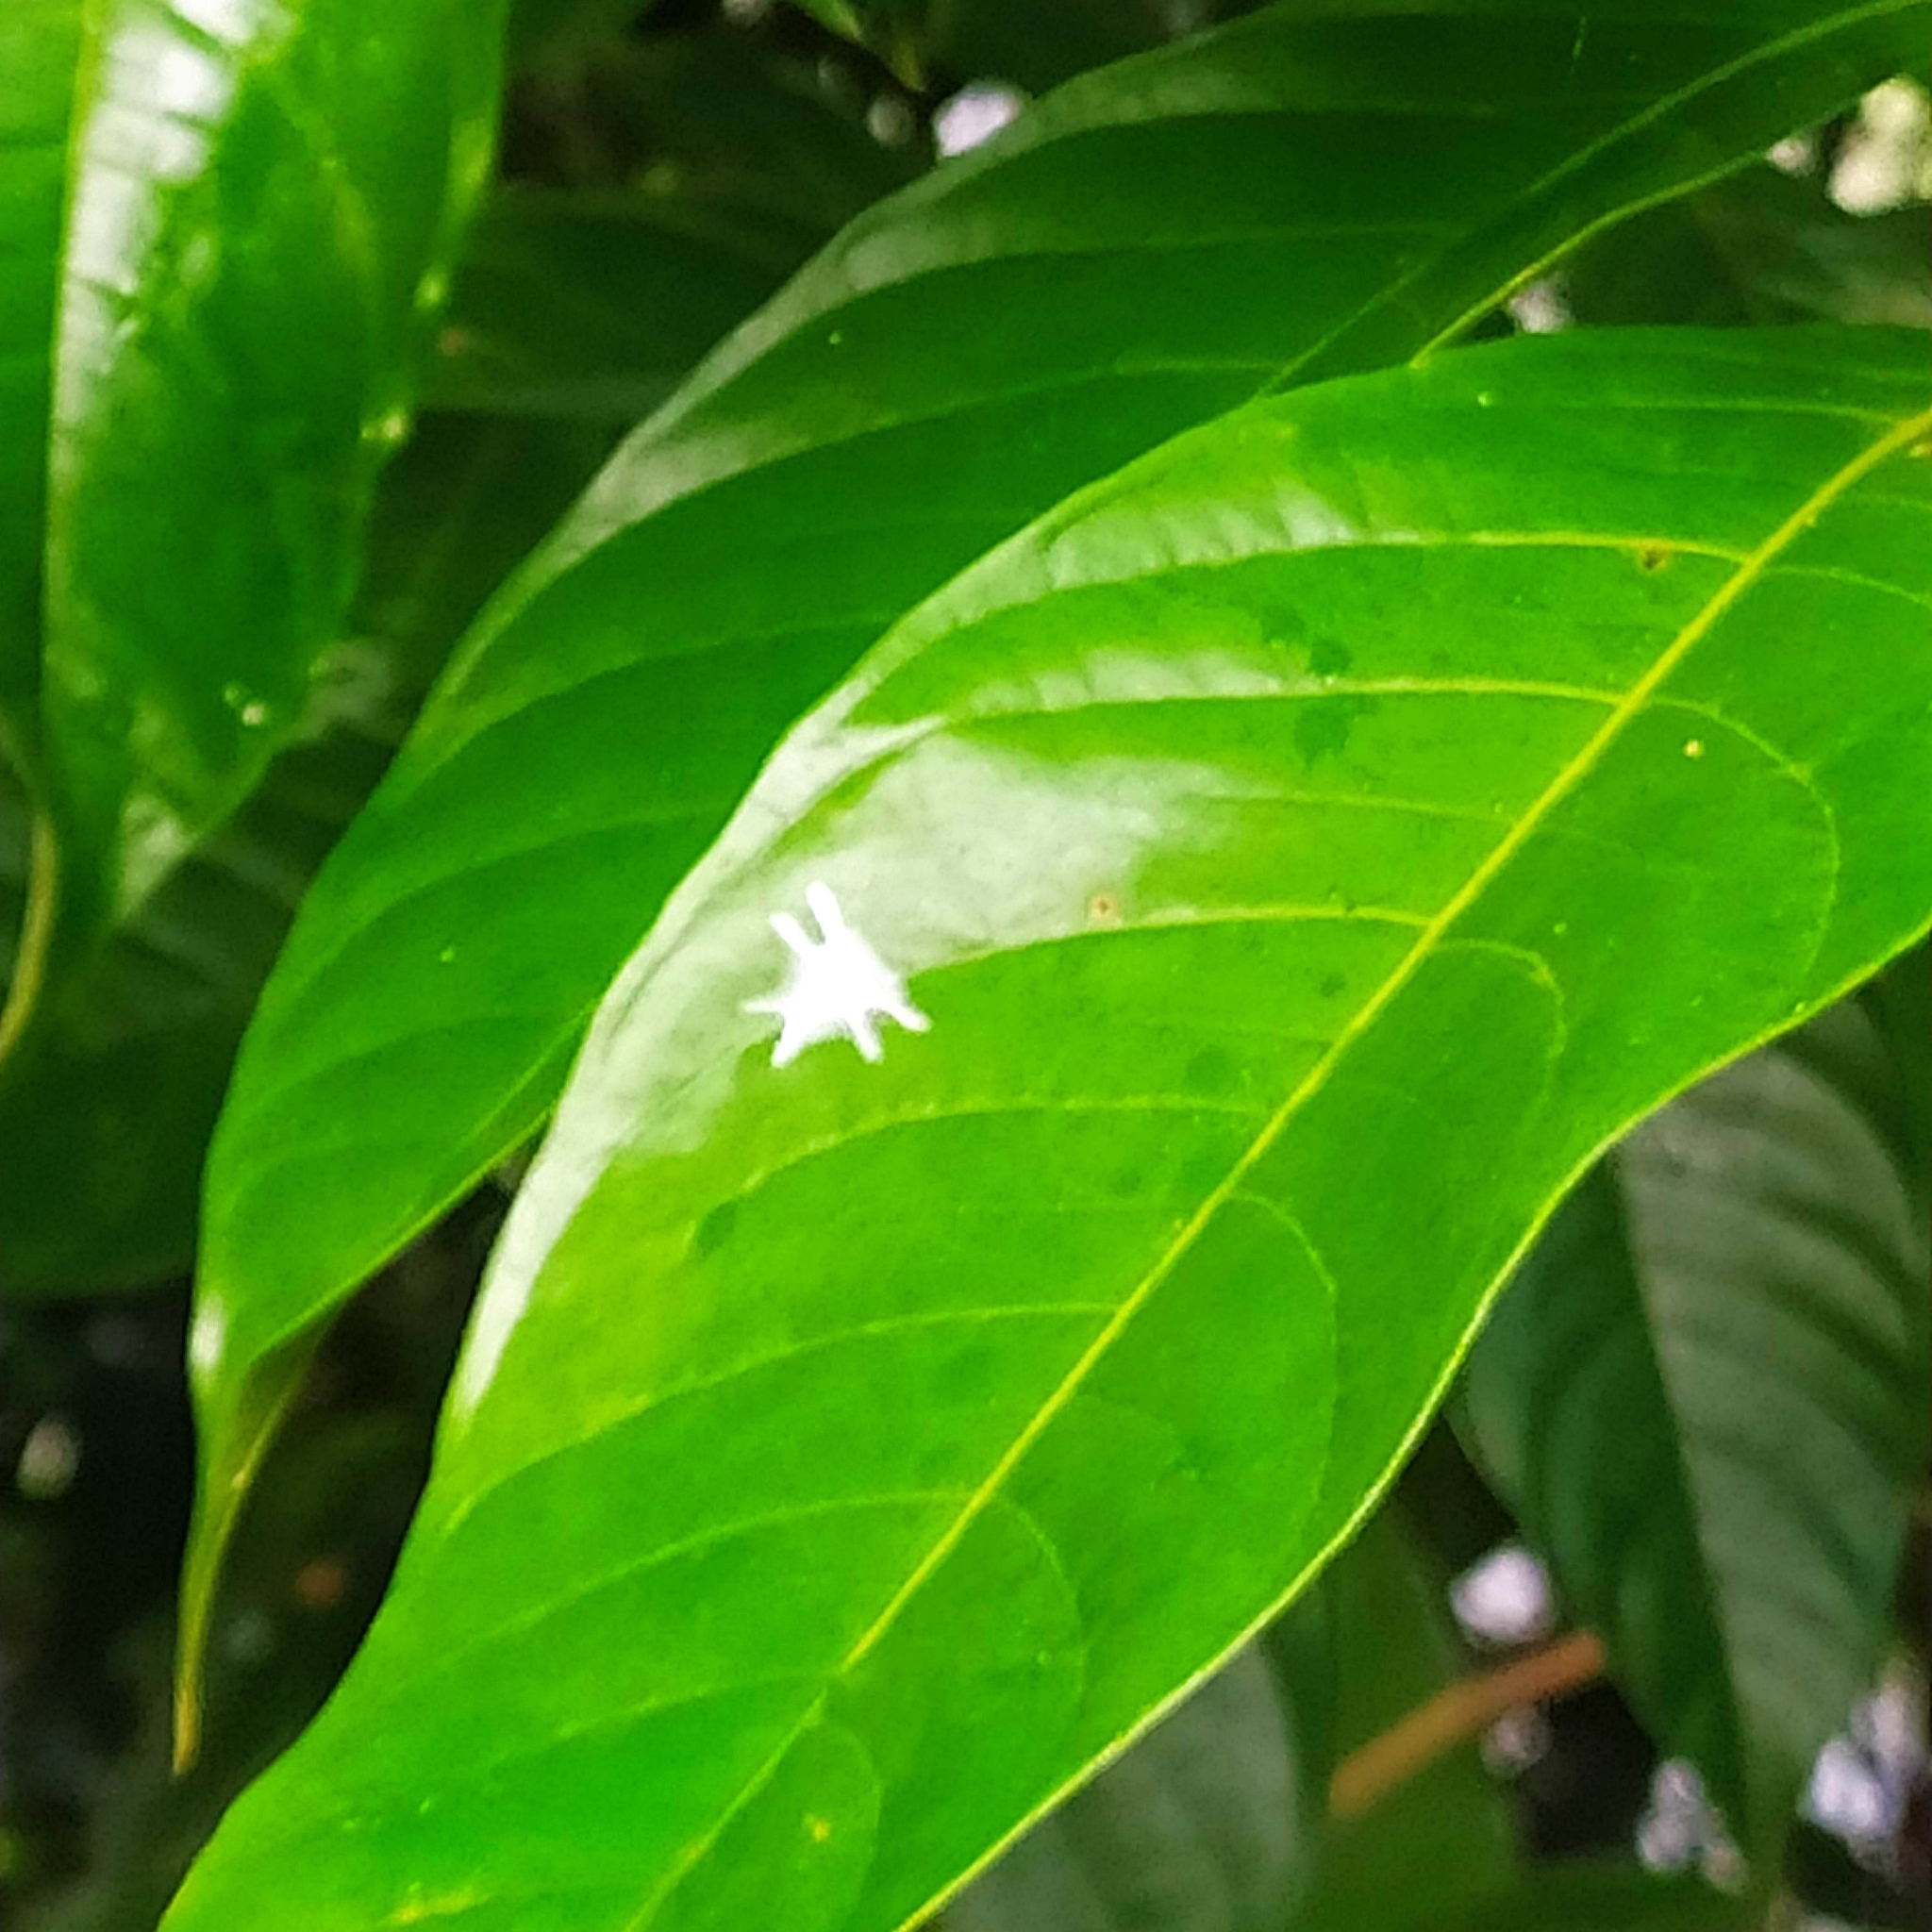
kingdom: Animalia
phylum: Arthropoda
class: Arachnida
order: Araneae
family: Salticidae
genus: Fritzia
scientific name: Fritzia
